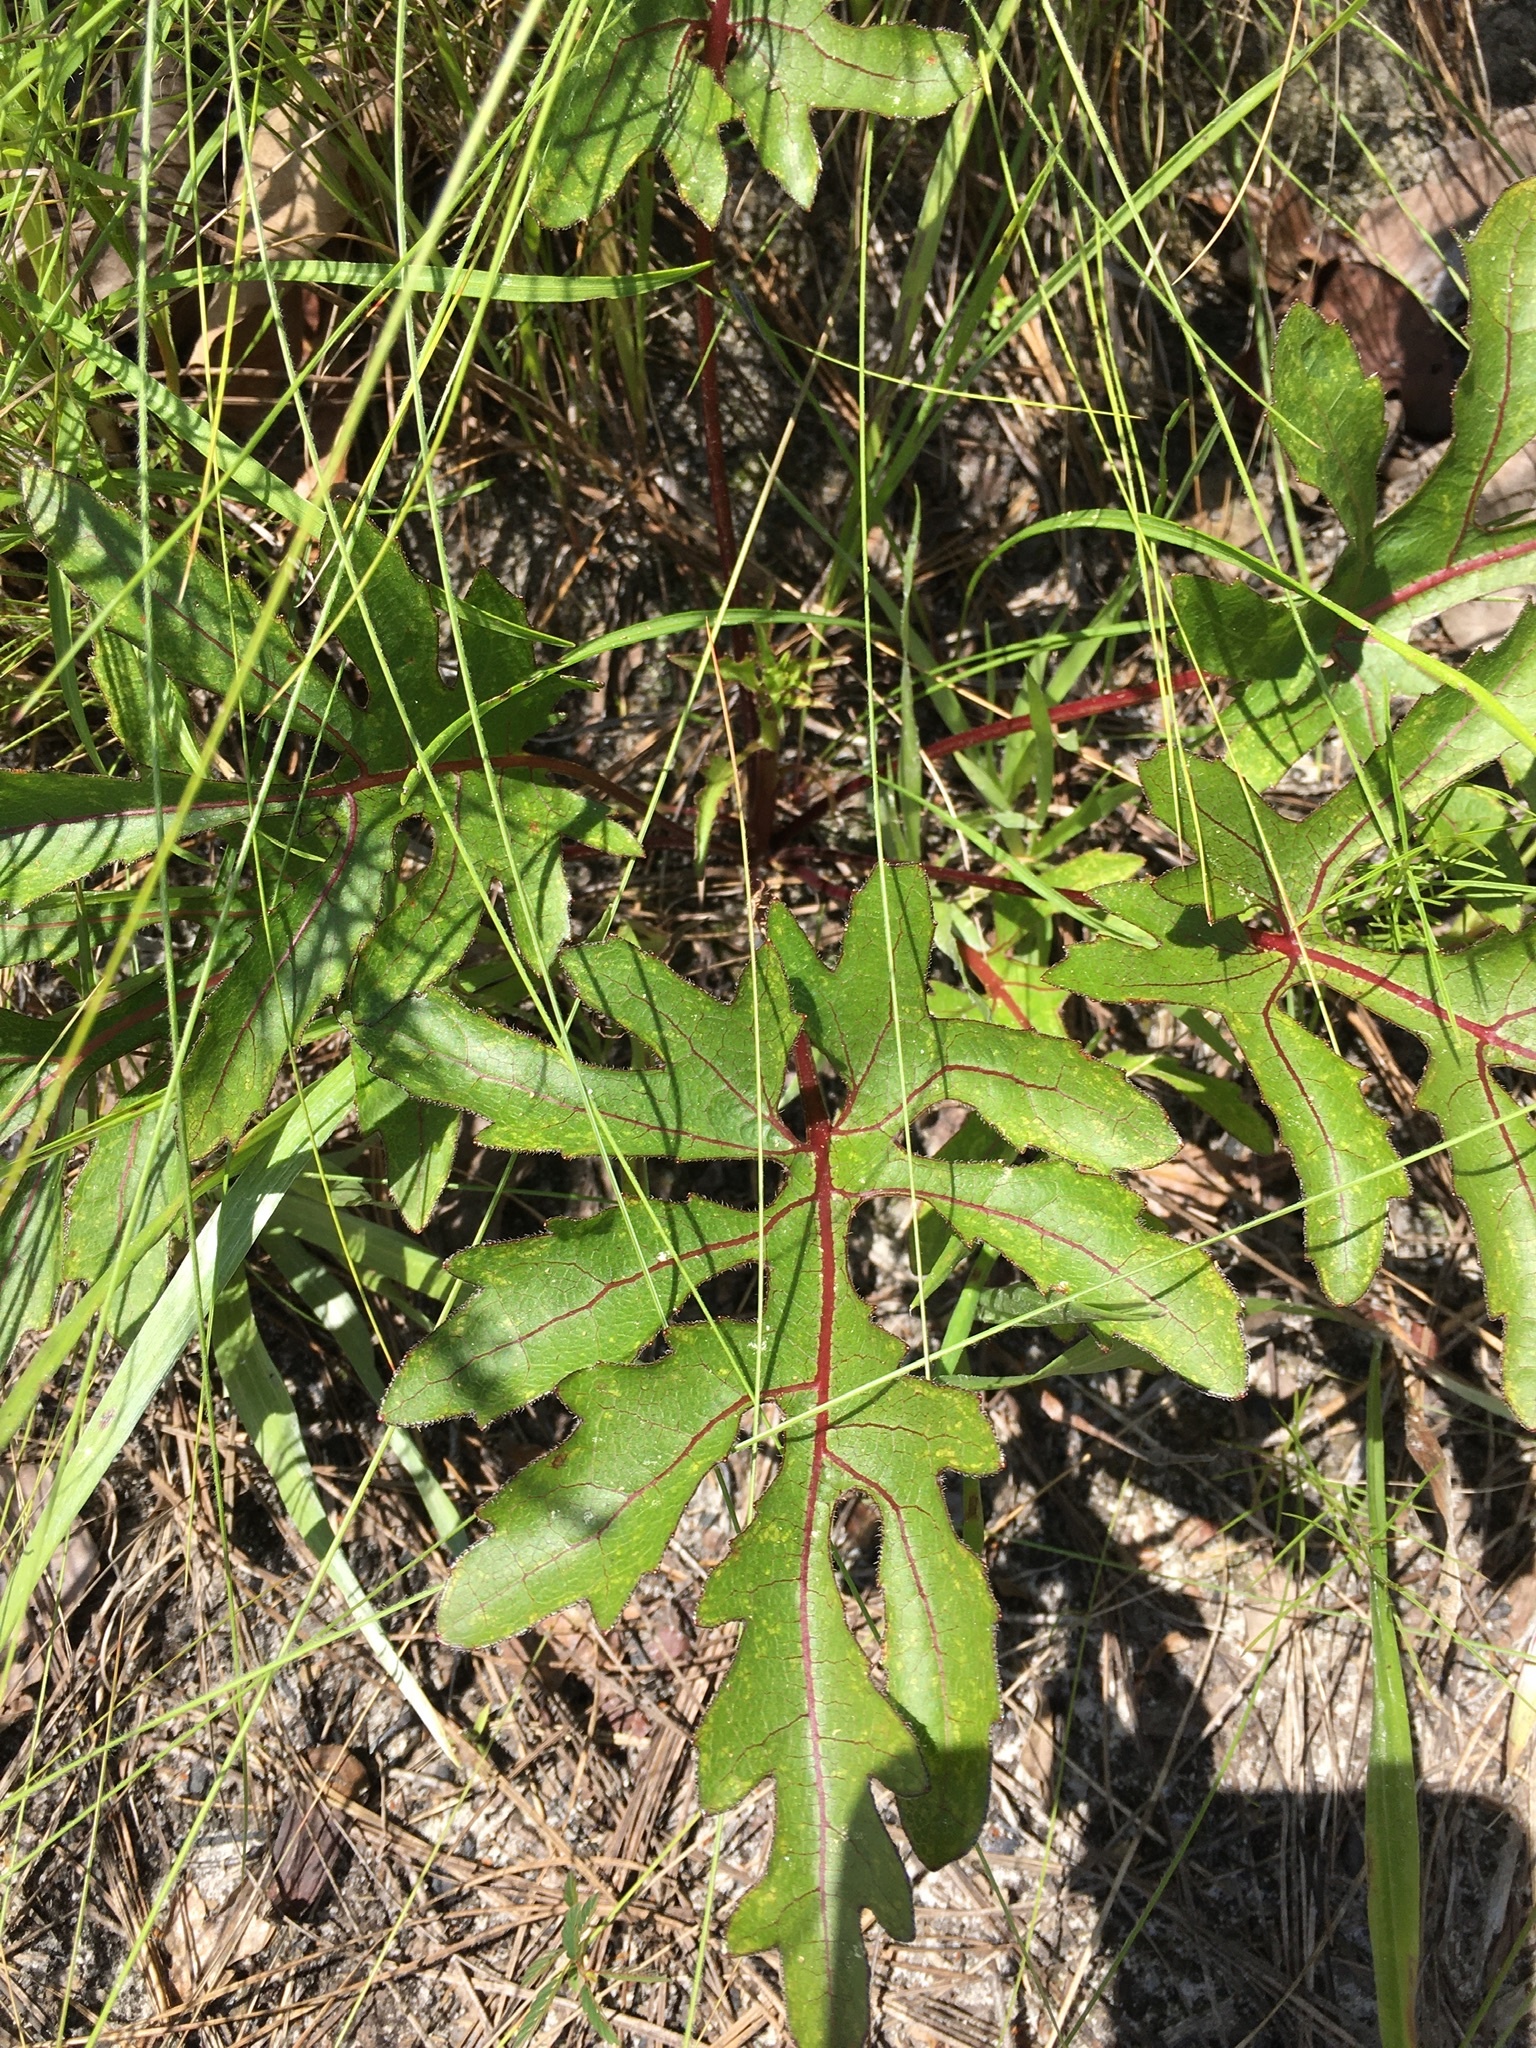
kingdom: Plantae
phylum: Tracheophyta
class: Magnoliopsida
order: Asterales
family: Asteraceae
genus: Silphium
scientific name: Silphium compositum
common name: Lesser basal-leaf rosinweed
